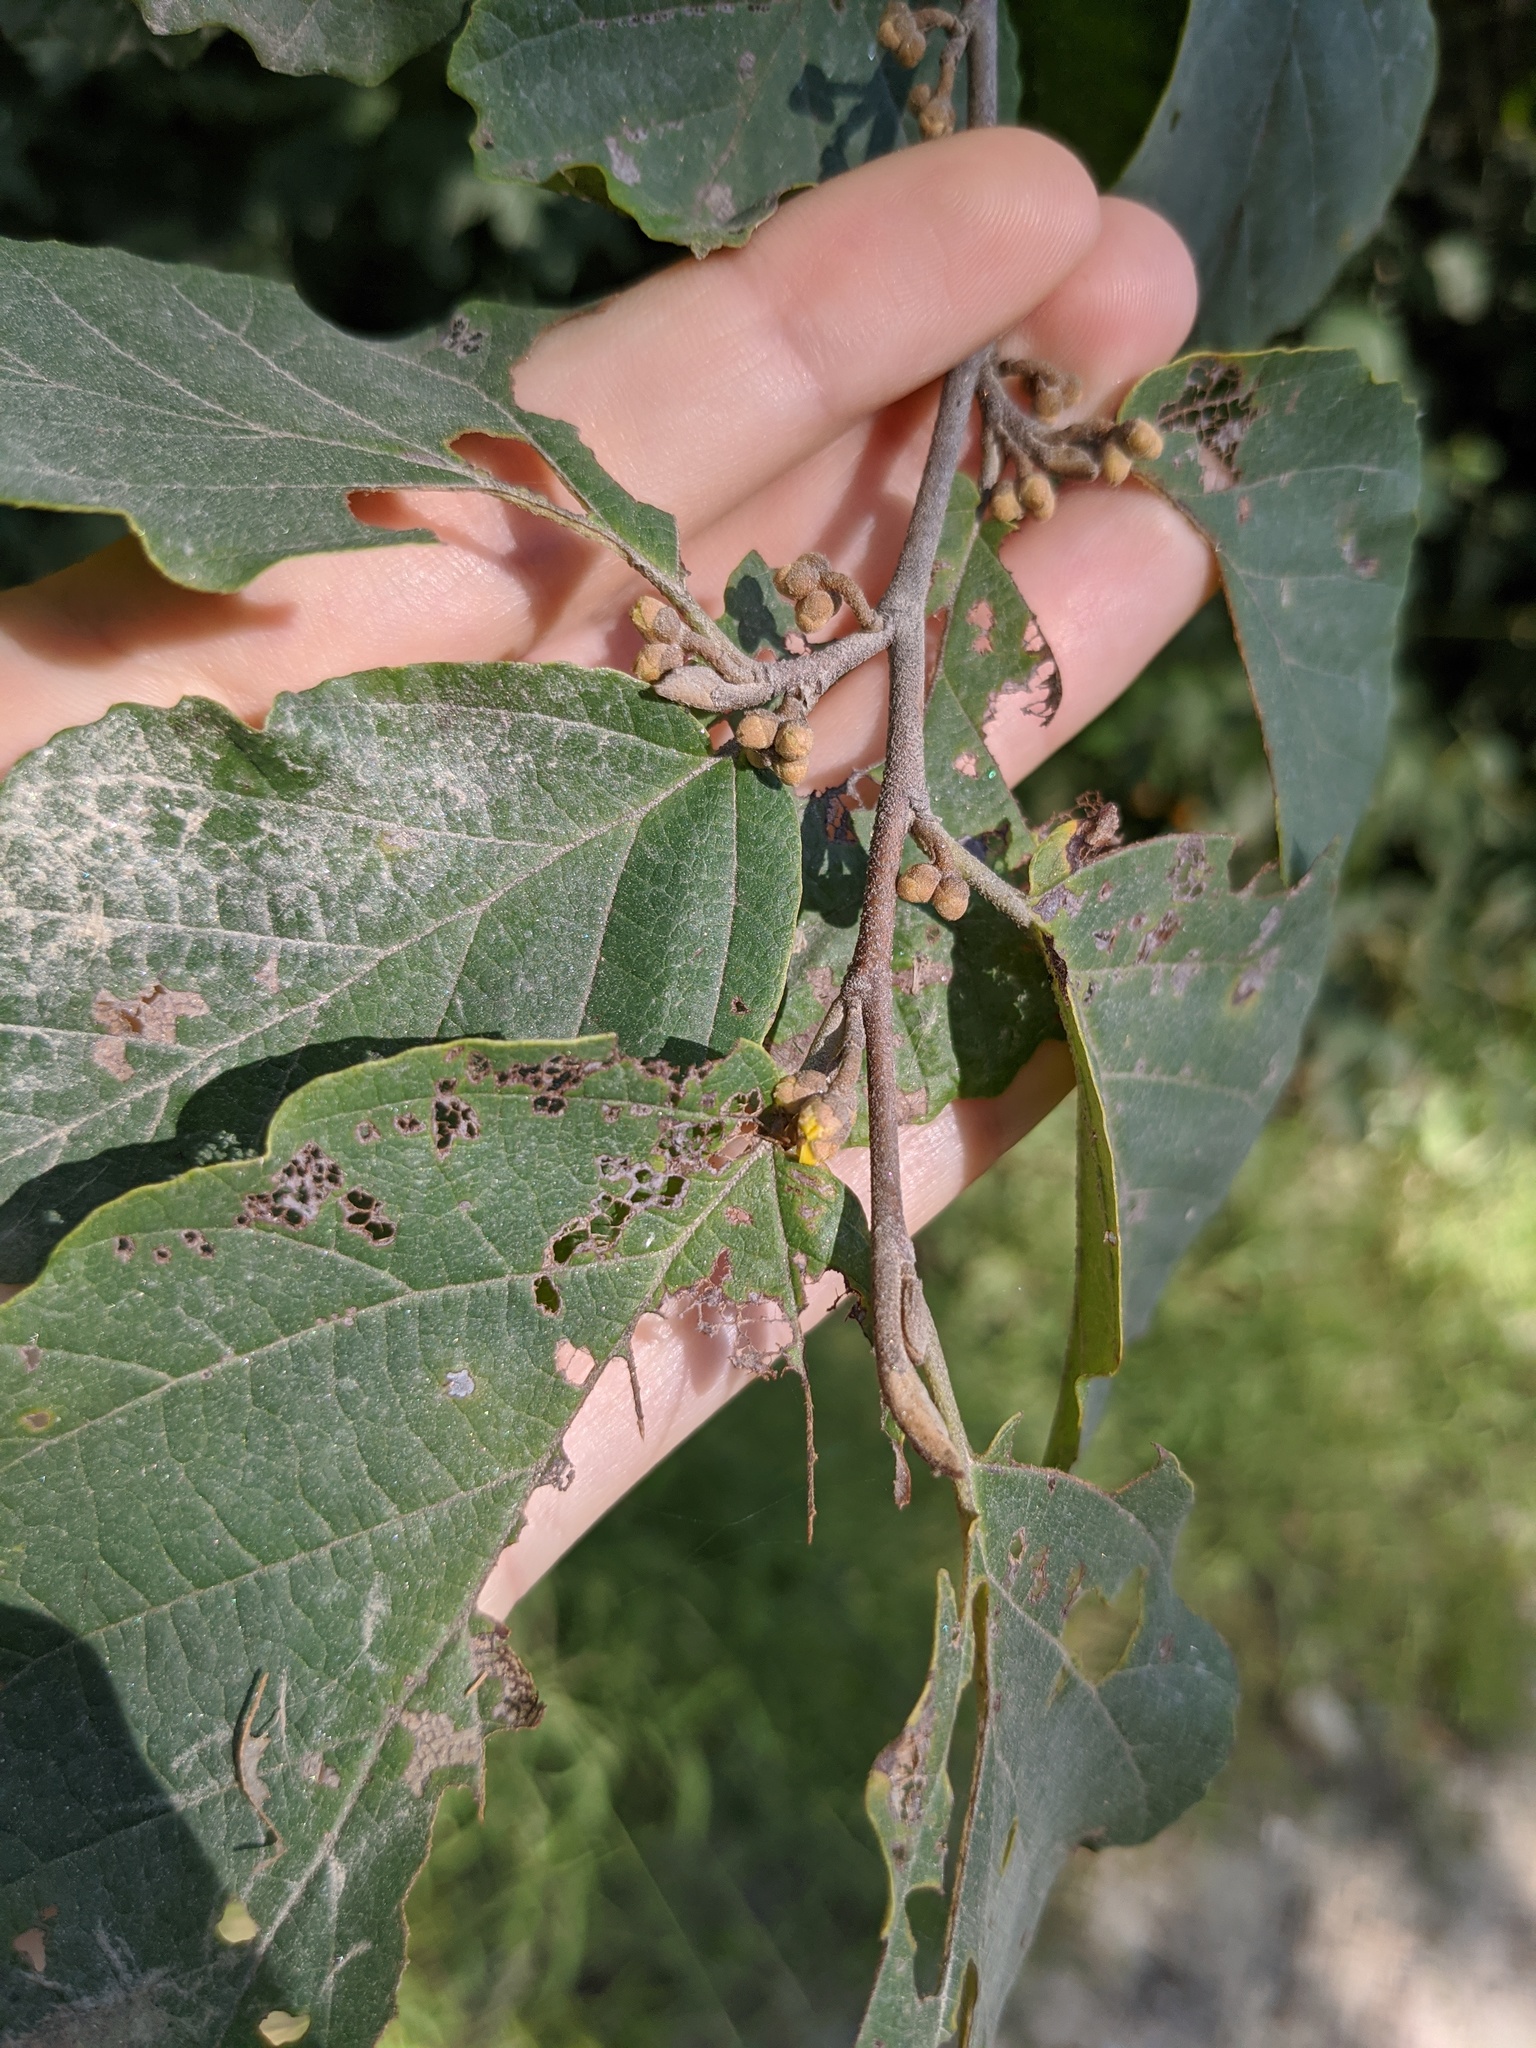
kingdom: Plantae
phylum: Tracheophyta
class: Magnoliopsida
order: Saxifragales
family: Hamamelidaceae
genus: Hamamelis
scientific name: Hamamelis virginiana
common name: Witch-hazel
